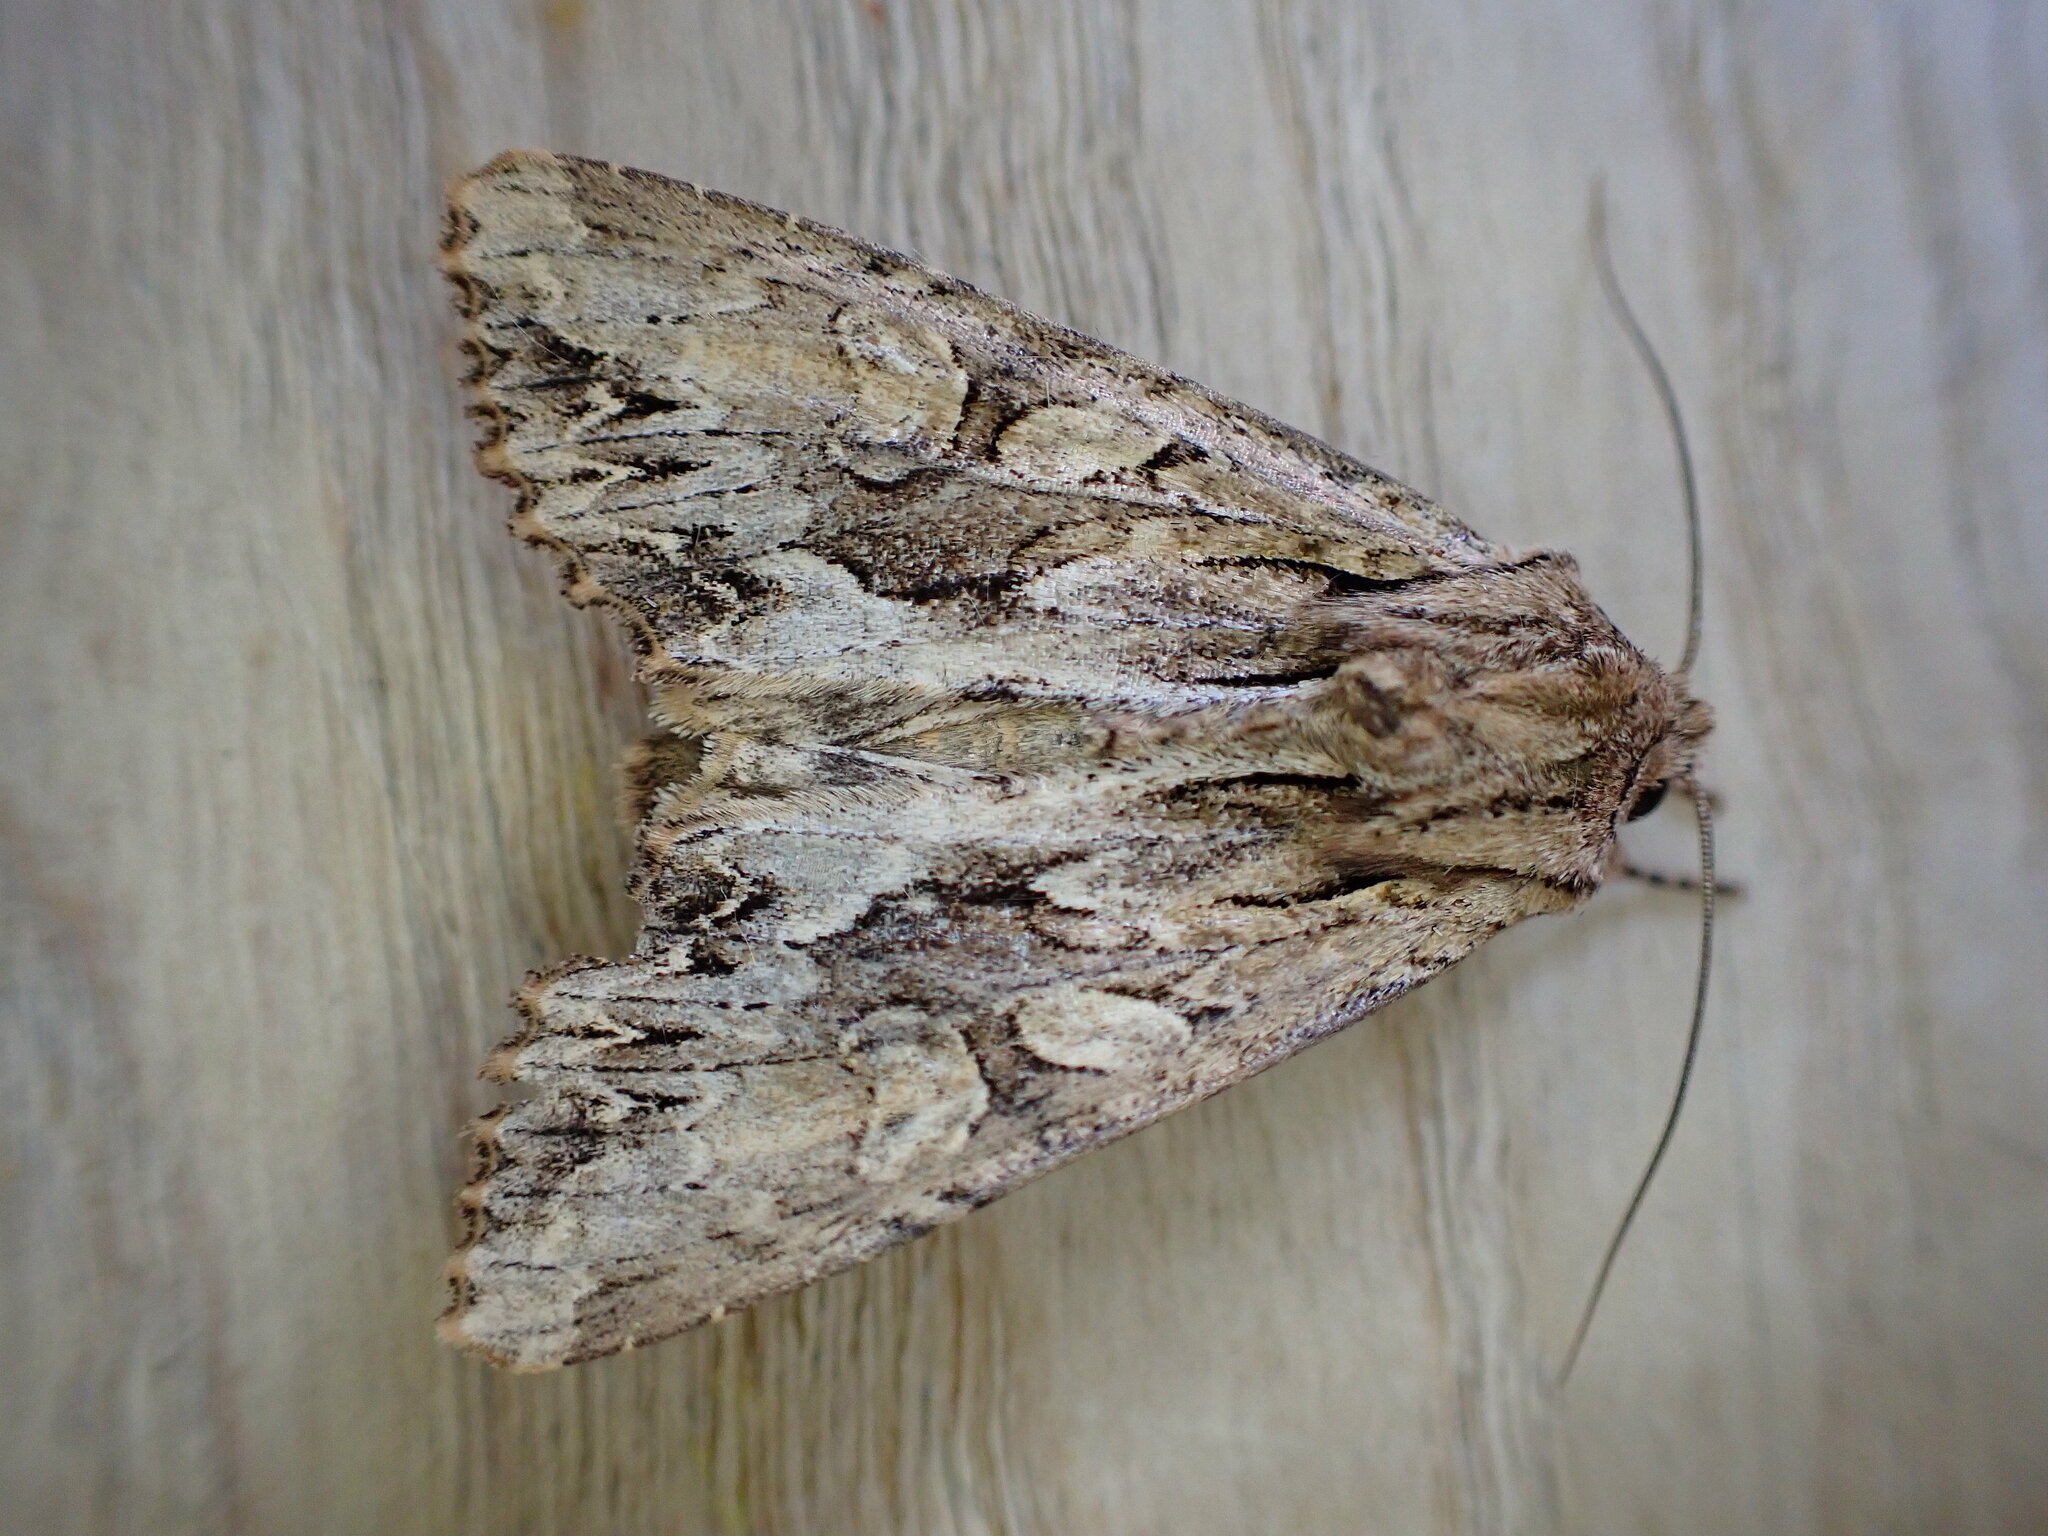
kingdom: Animalia
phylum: Arthropoda
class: Insecta
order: Lepidoptera
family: Noctuidae
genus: Apamea
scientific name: Apamea monoglypha
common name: Dark arches
